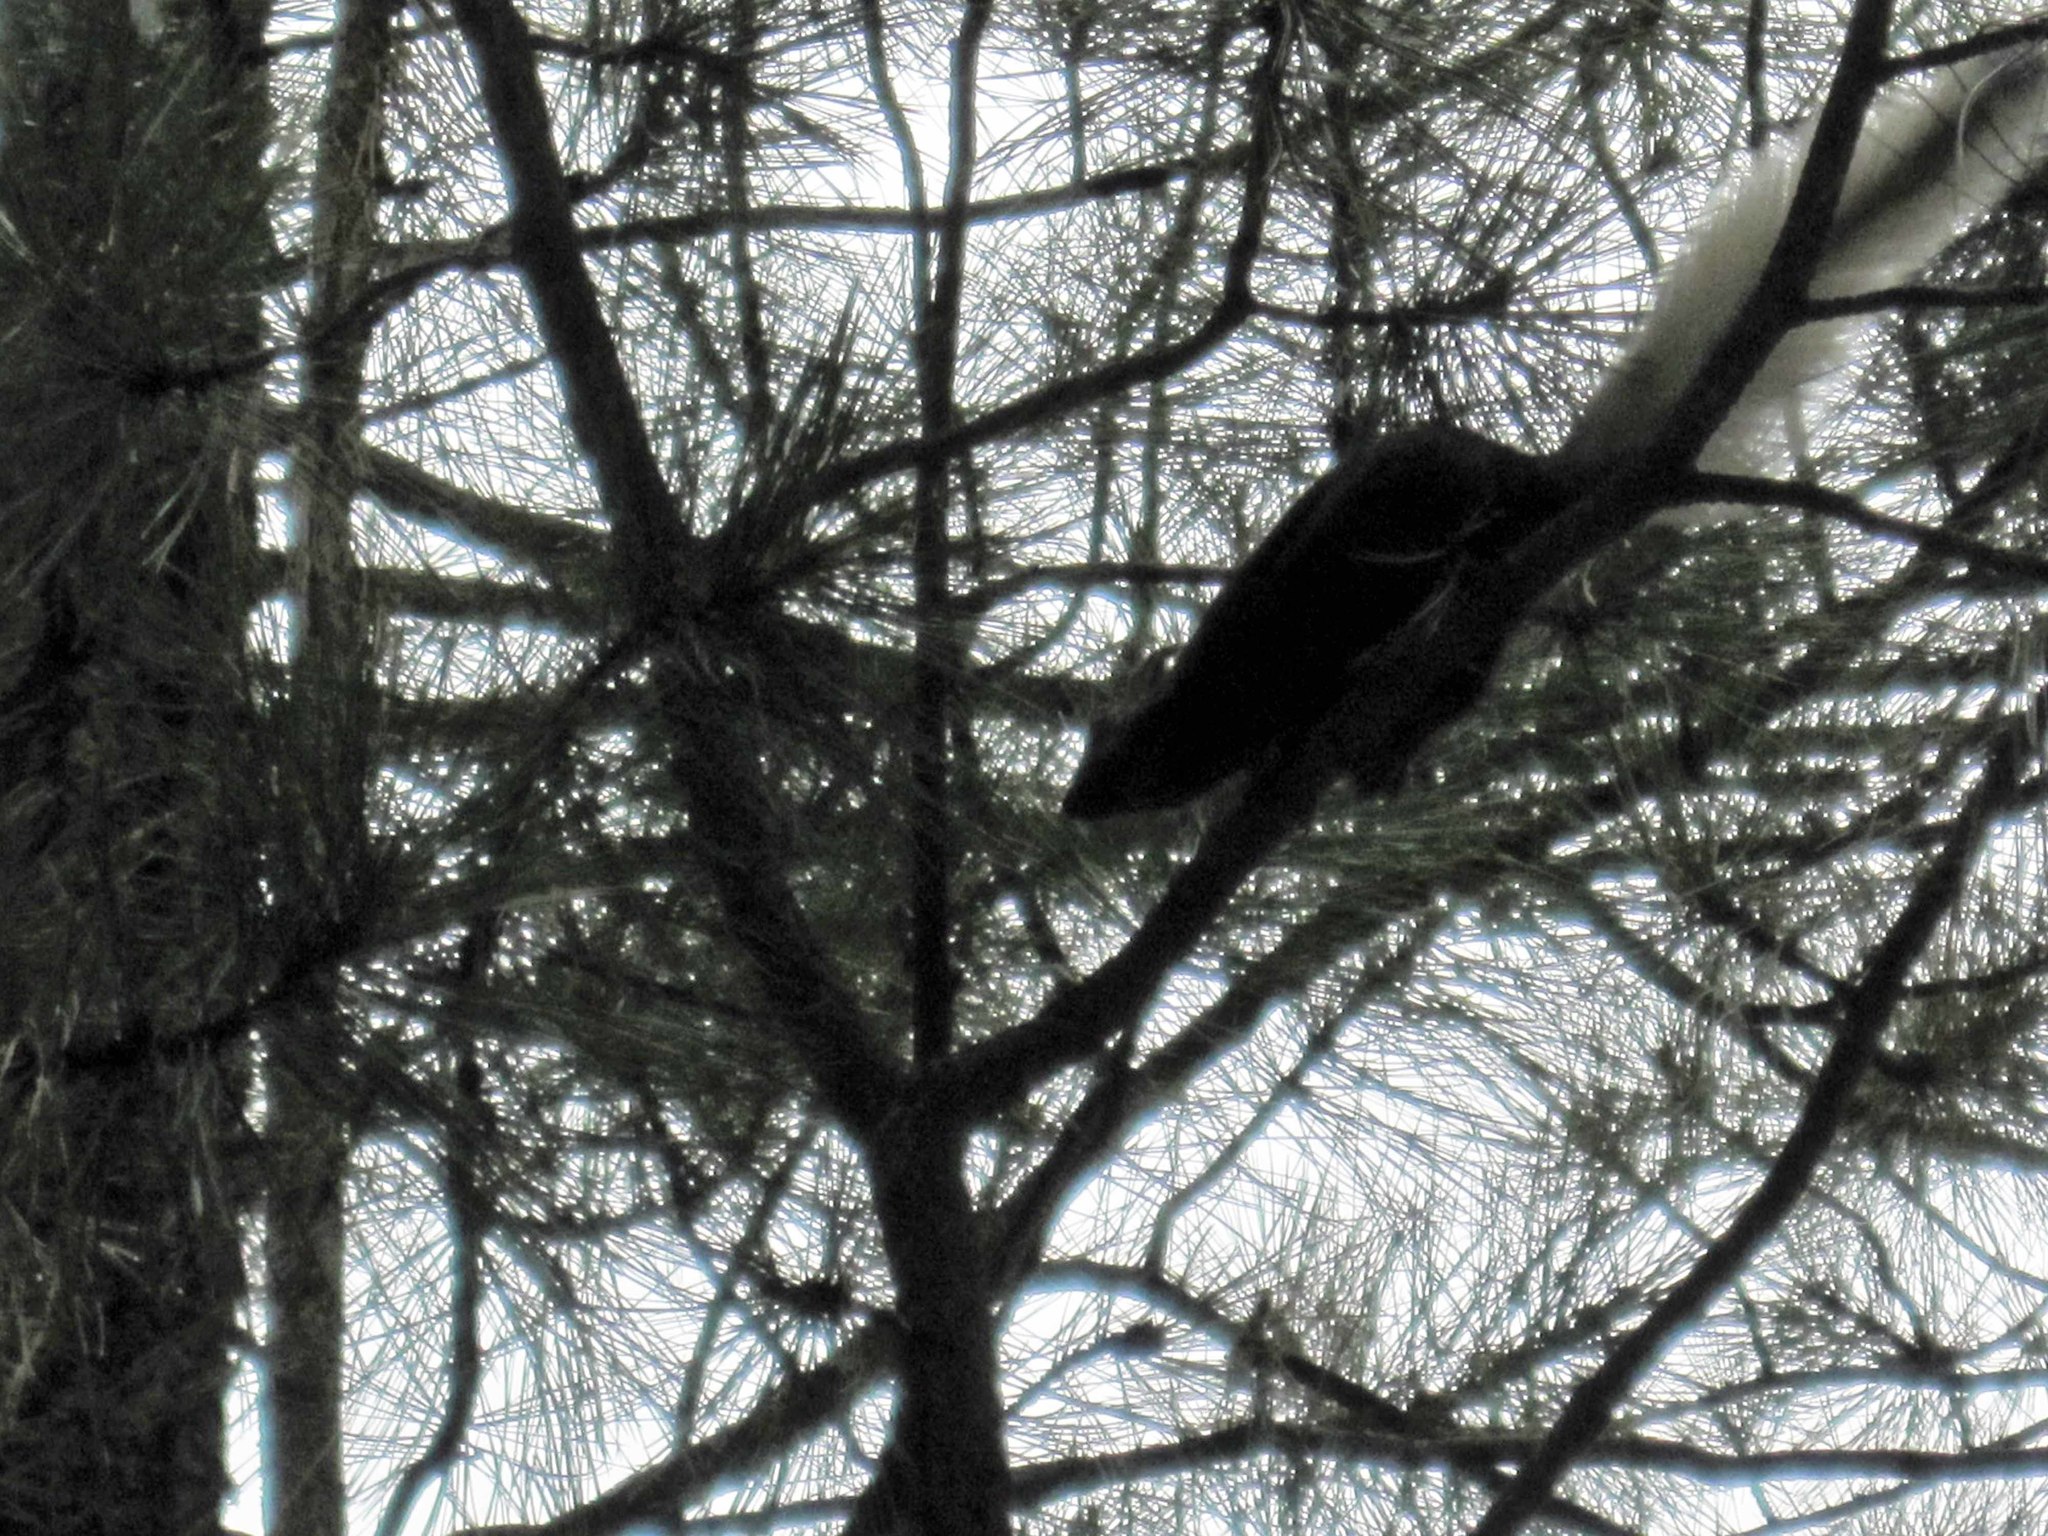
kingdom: Animalia
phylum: Chordata
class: Mammalia
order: Rodentia
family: Sciuridae
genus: Sciurus
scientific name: Sciurus aberti
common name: Abert's squirrel
